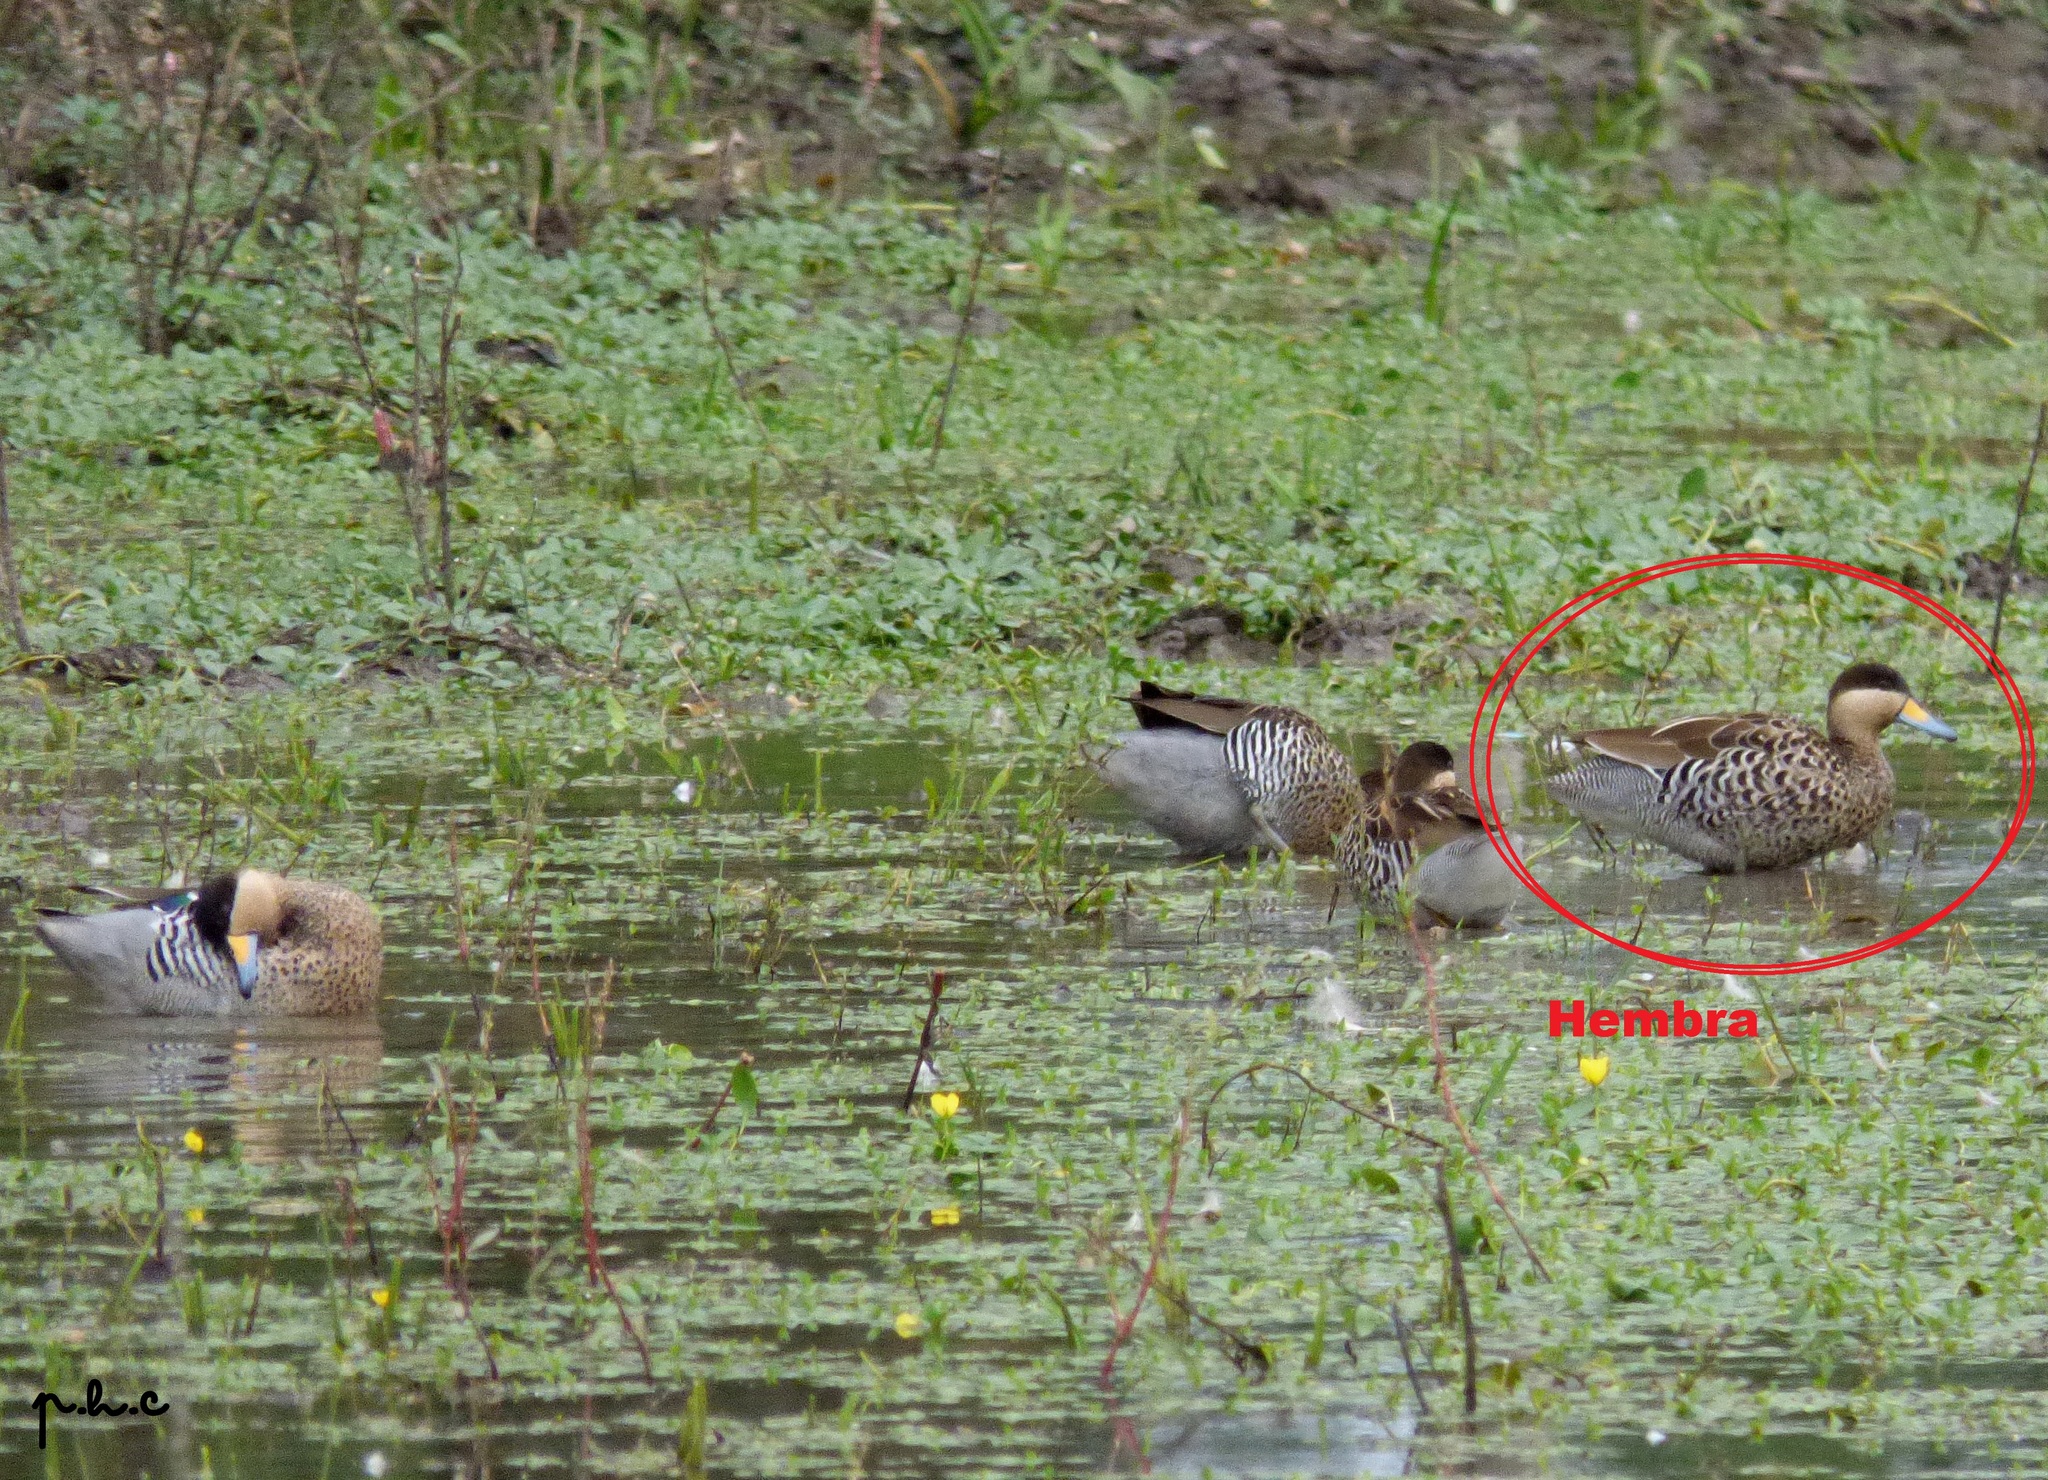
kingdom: Animalia
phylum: Chordata
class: Aves
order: Anseriformes
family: Anatidae
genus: Spatula
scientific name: Spatula versicolor
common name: Silver teal
